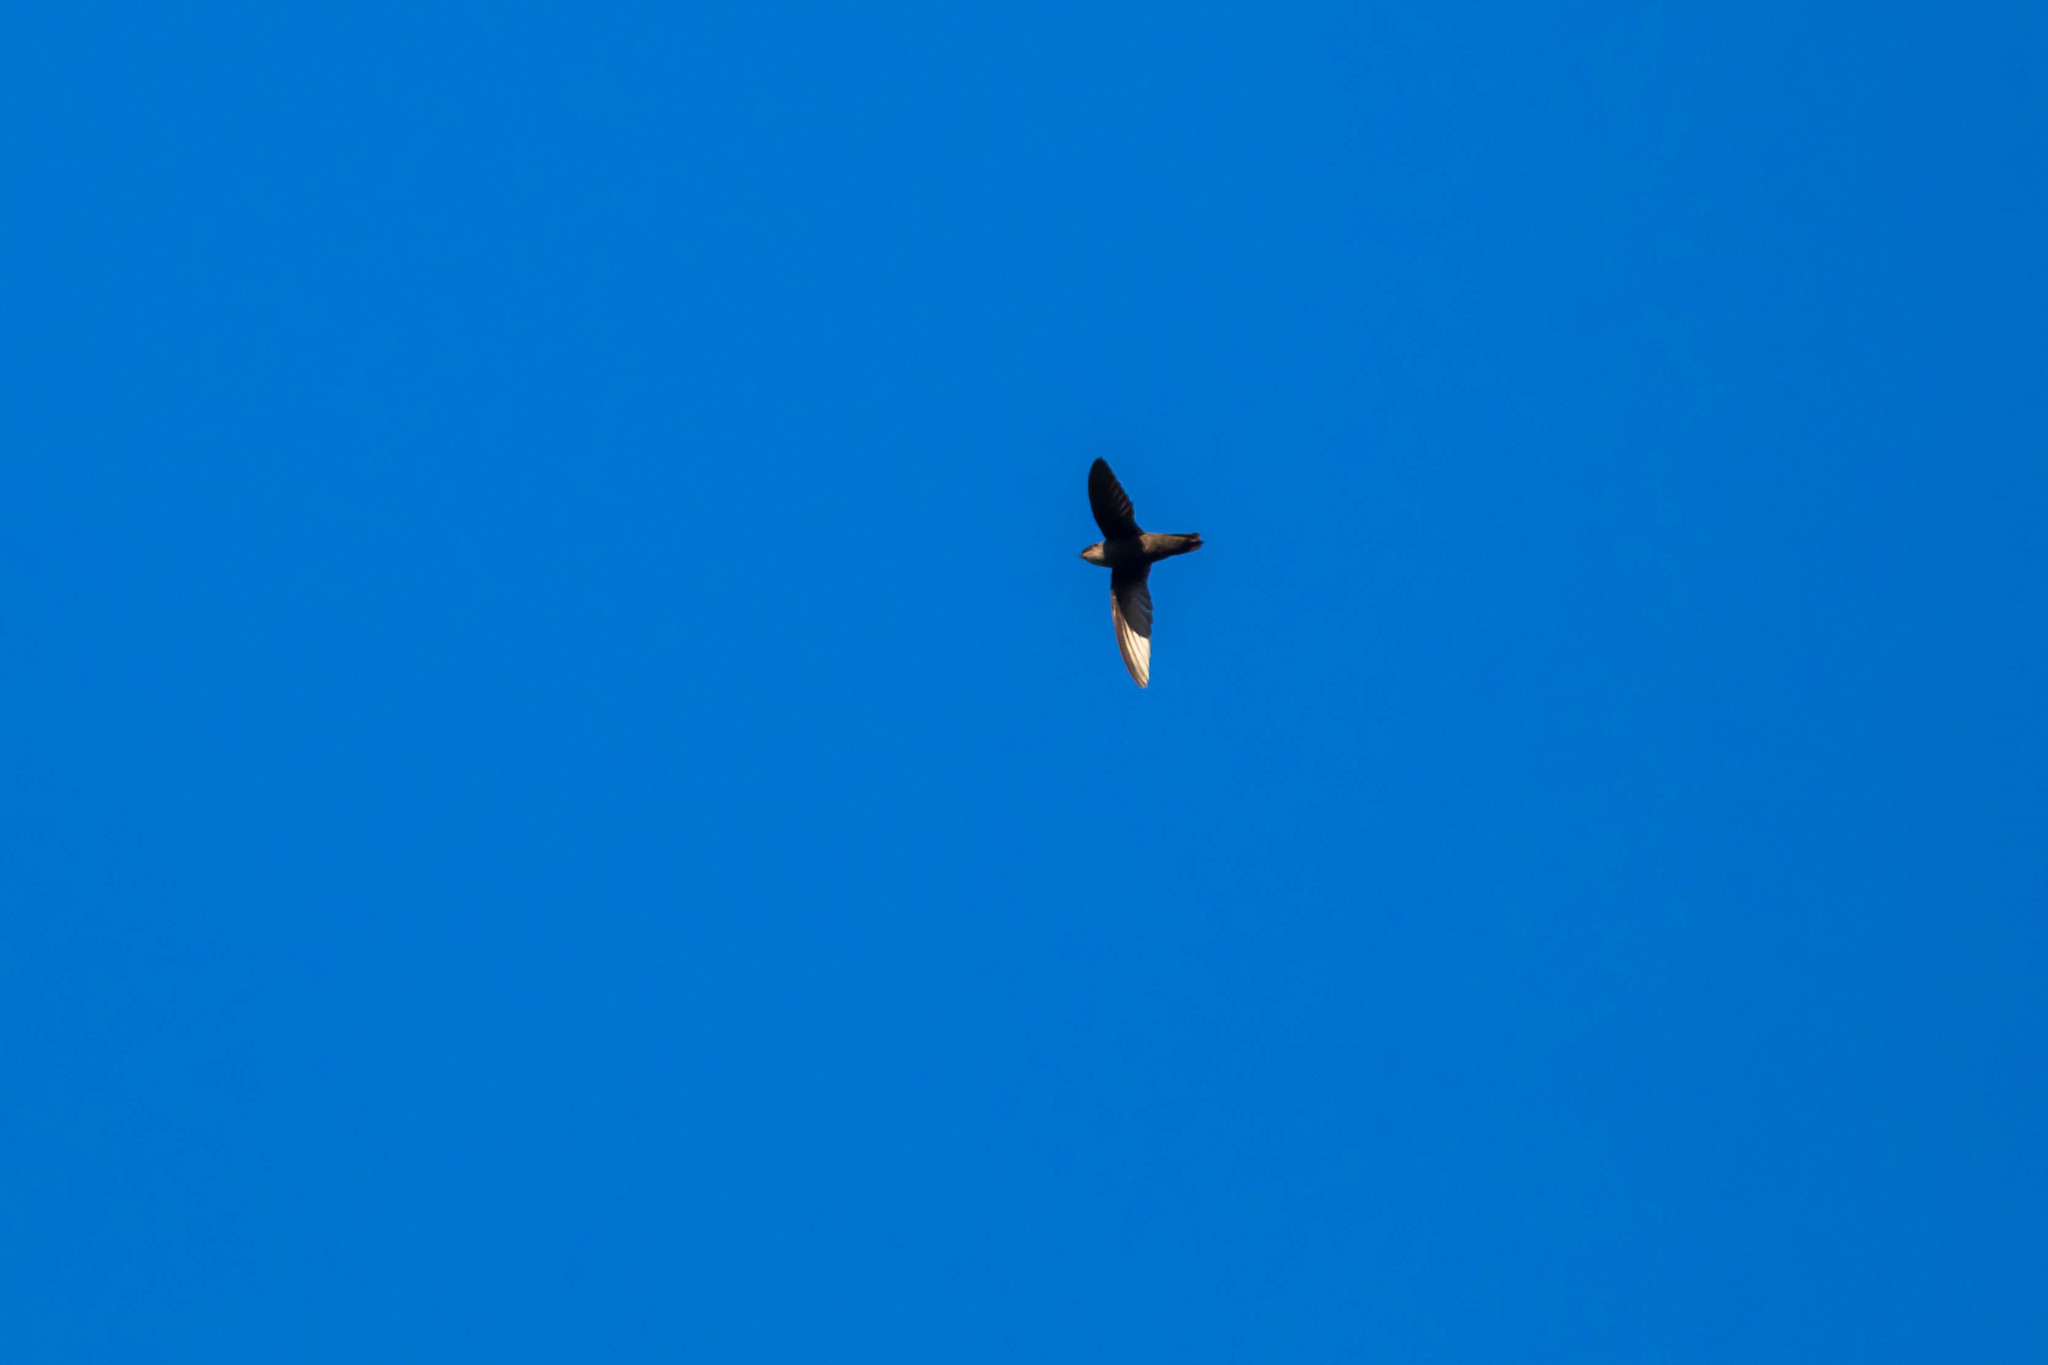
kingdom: Animalia
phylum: Chordata
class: Aves
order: Apodiformes
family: Apodidae
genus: Chaetura
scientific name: Chaetura cinereiventris
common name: Gray-rumped swift
